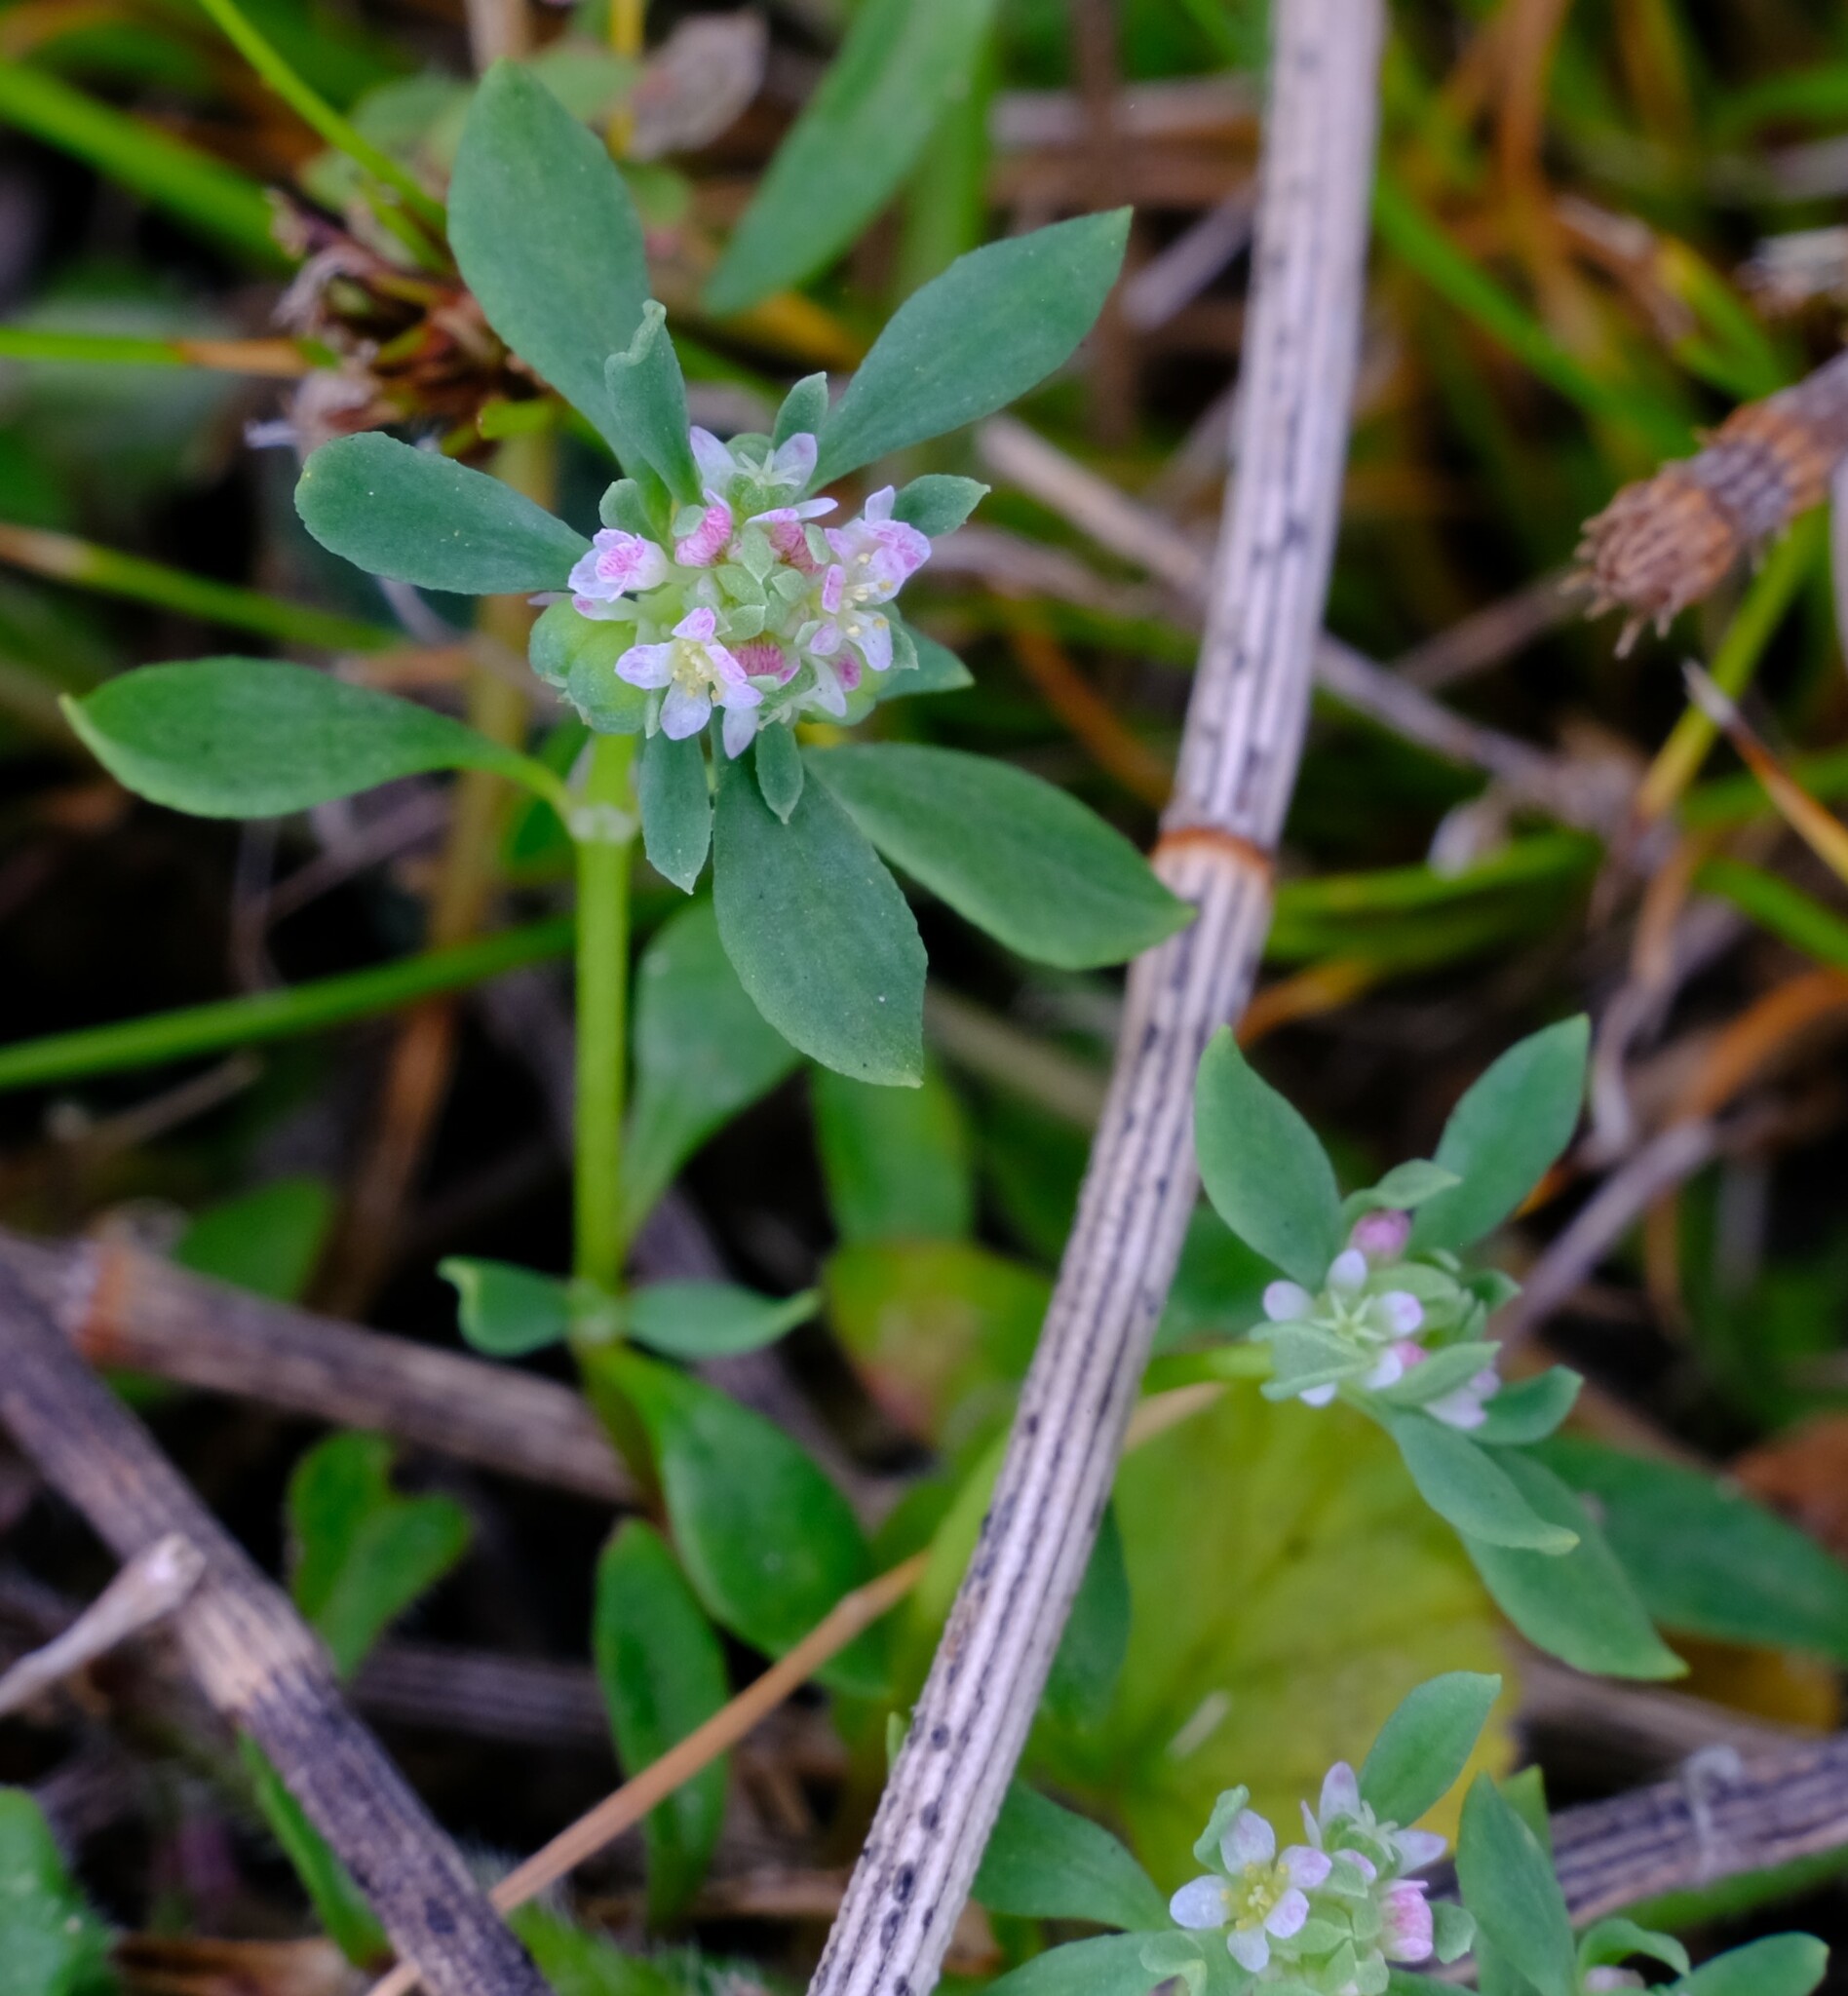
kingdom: Plantae
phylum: Tracheophyta
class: Magnoliopsida
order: Malpighiales
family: Phyllanthaceae
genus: Poranthera
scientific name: Poranthera microphylla
